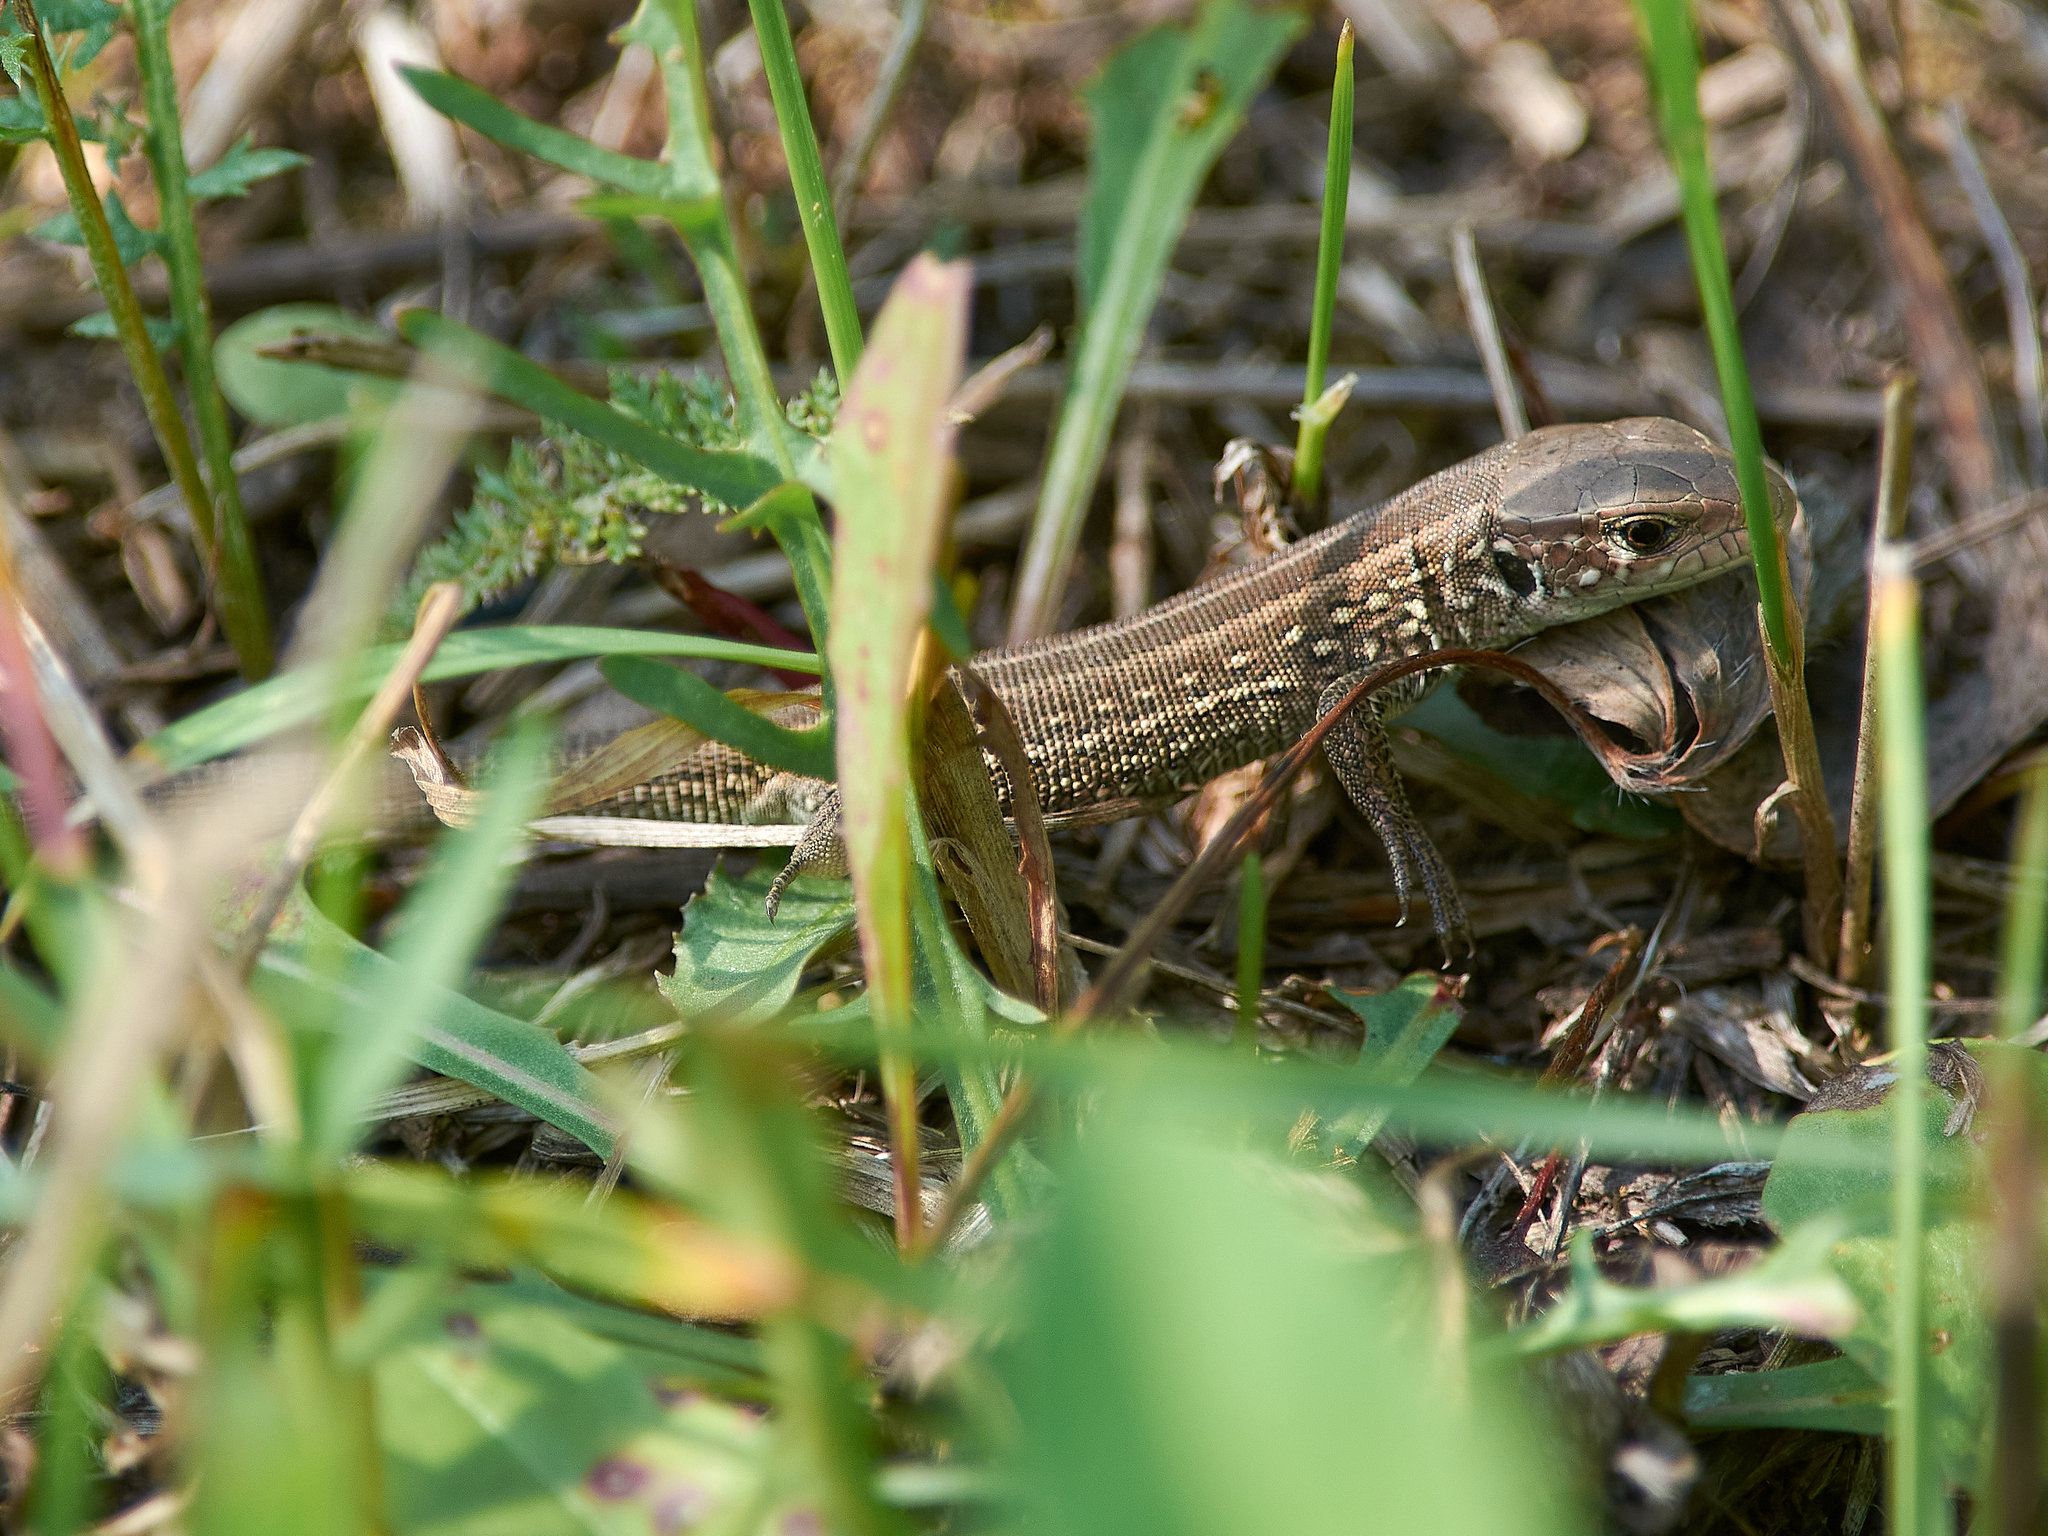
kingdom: Animalia
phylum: Chordata
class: Squamata
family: Lacertidae
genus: Lacerta
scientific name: Lacerta agilis
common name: Sand lizard
